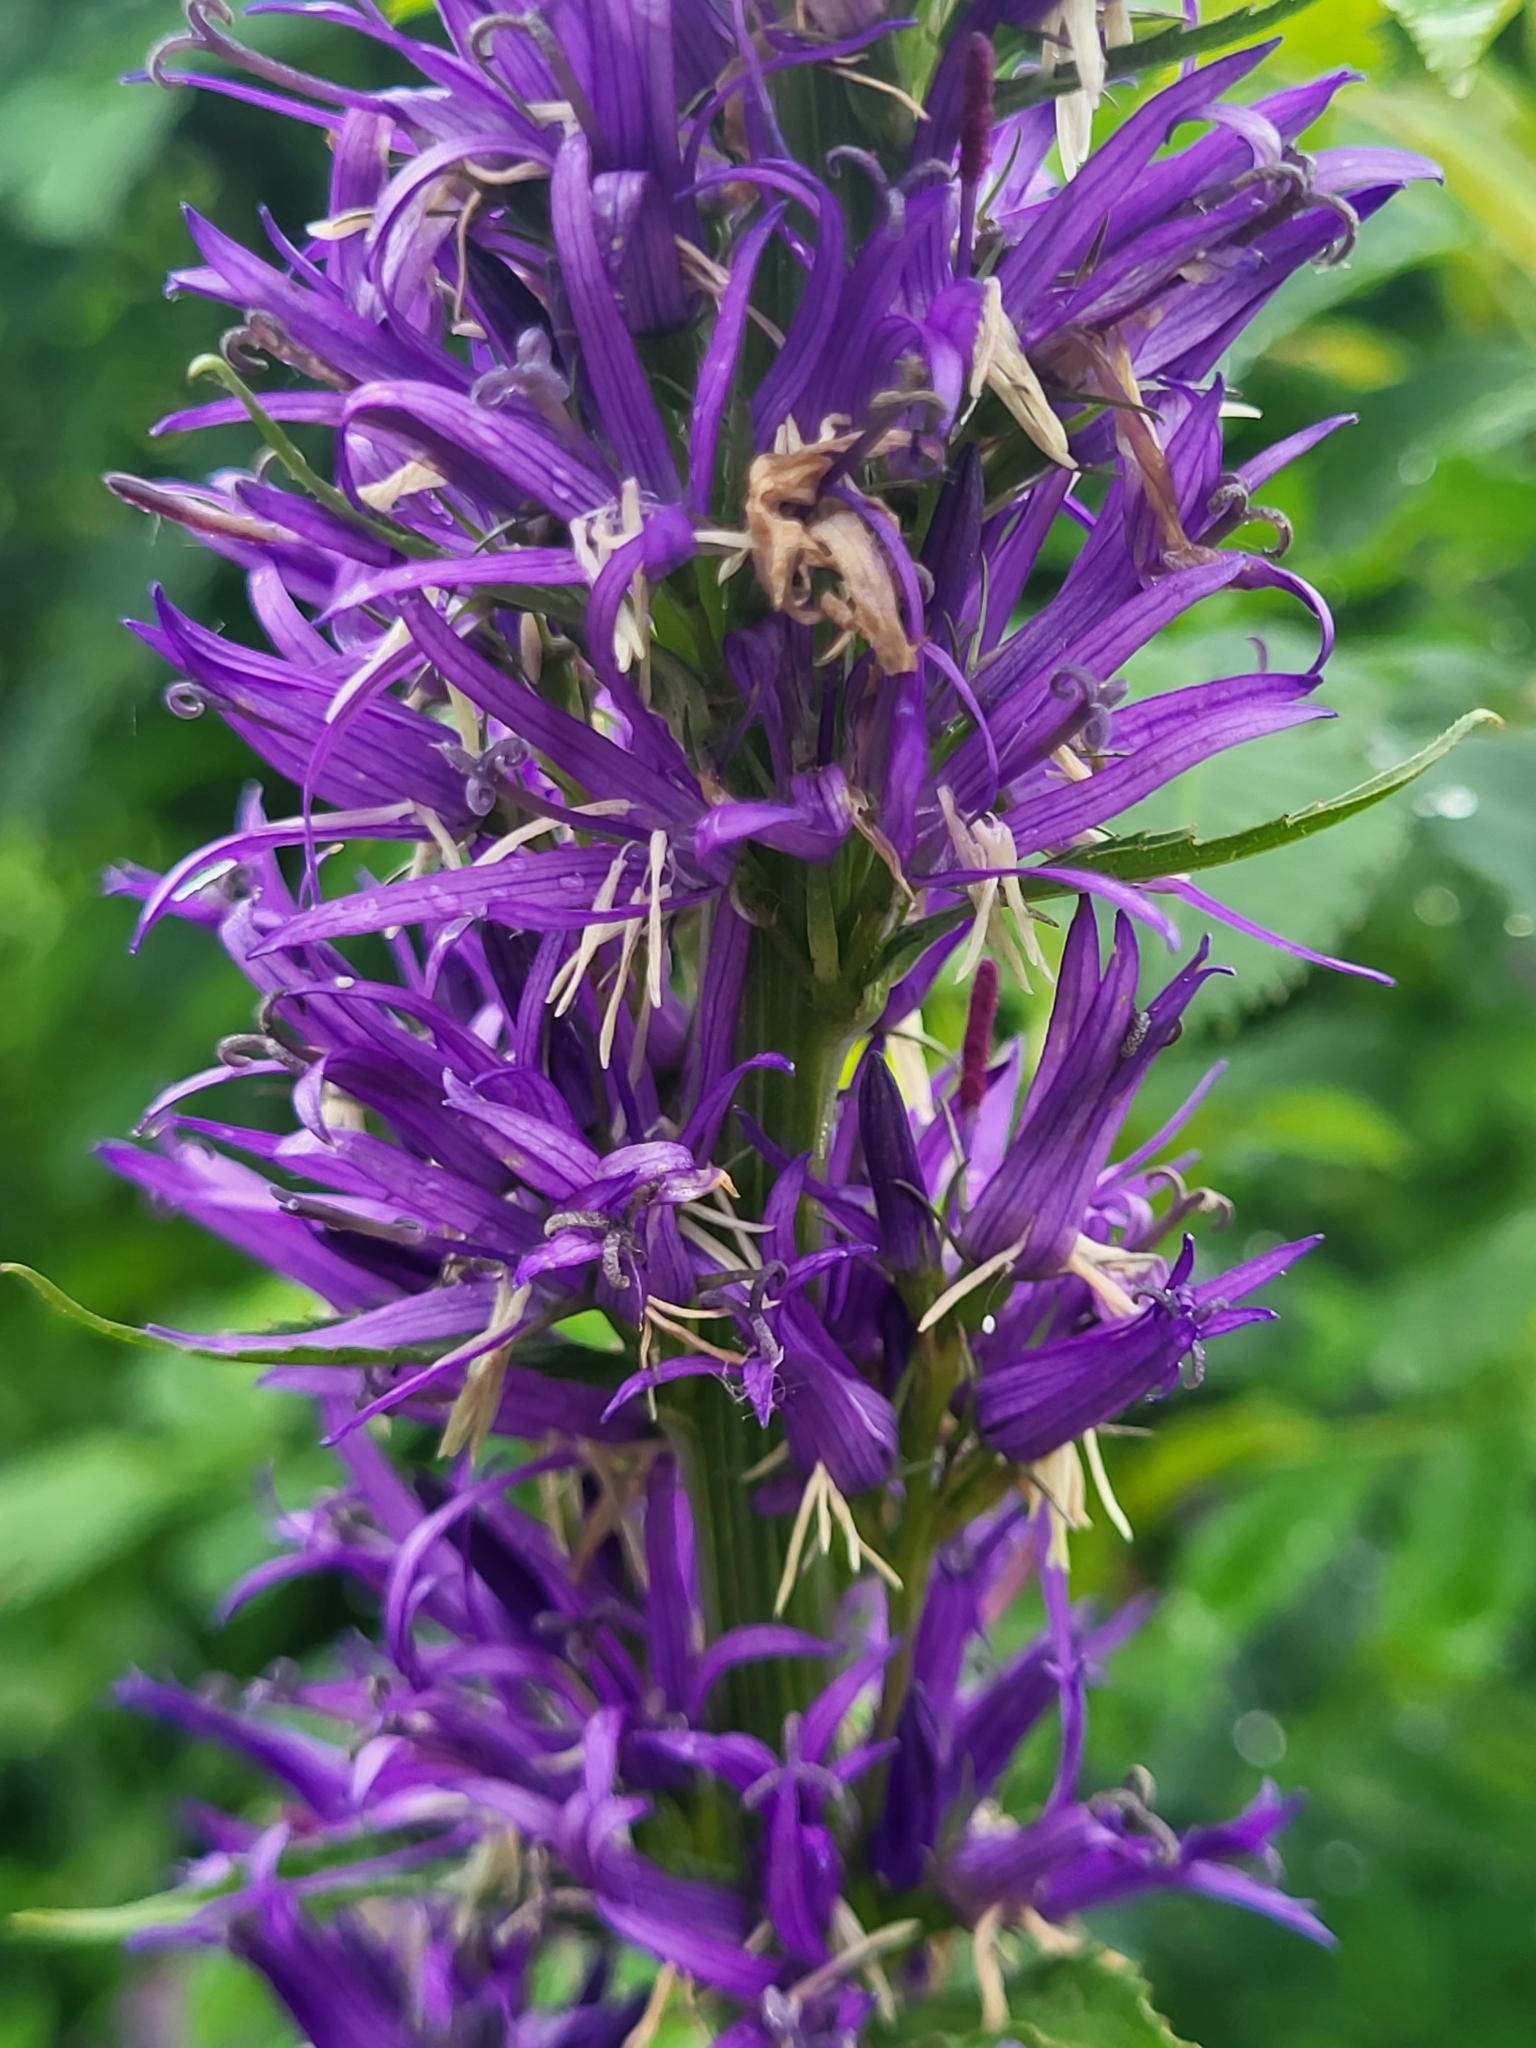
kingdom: Plantae
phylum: Tracheophyta
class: Magnoliopsida
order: Asterales
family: Campanulaceae
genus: Asyneuma
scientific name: Asyneuma campanuloides
